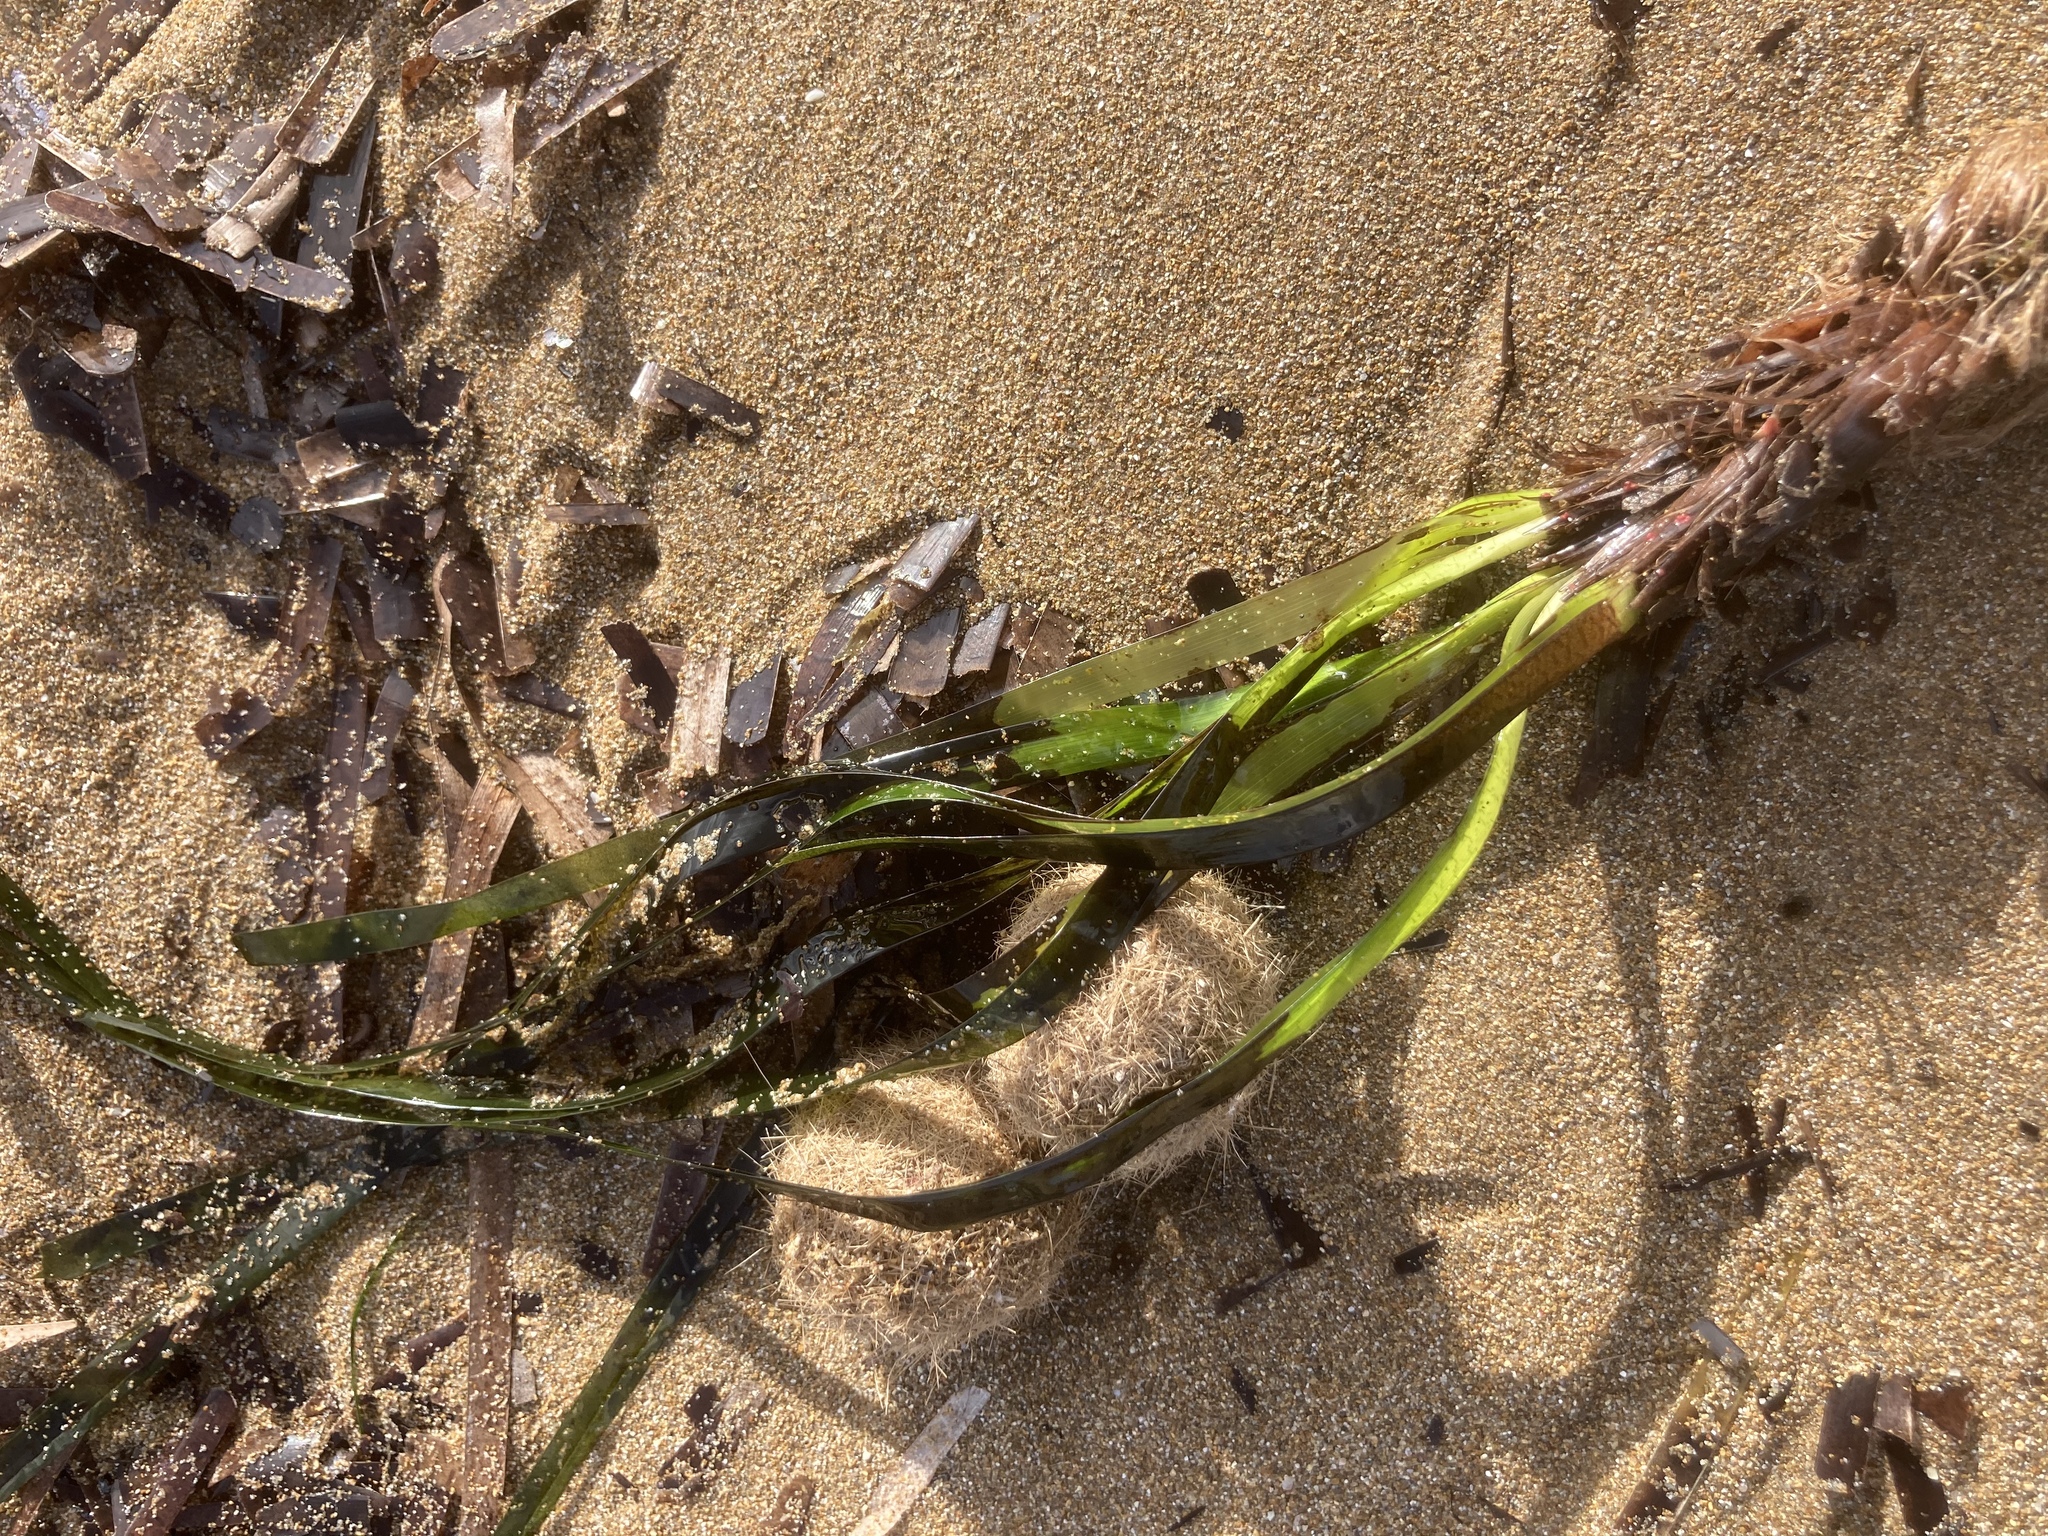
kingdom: Plantae
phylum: Tracheophyta
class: Liliopsida
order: Alismatales
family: Posidoniaceae
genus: Posidonia
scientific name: Posidonia oceanica
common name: Mediterranean tapeweed
